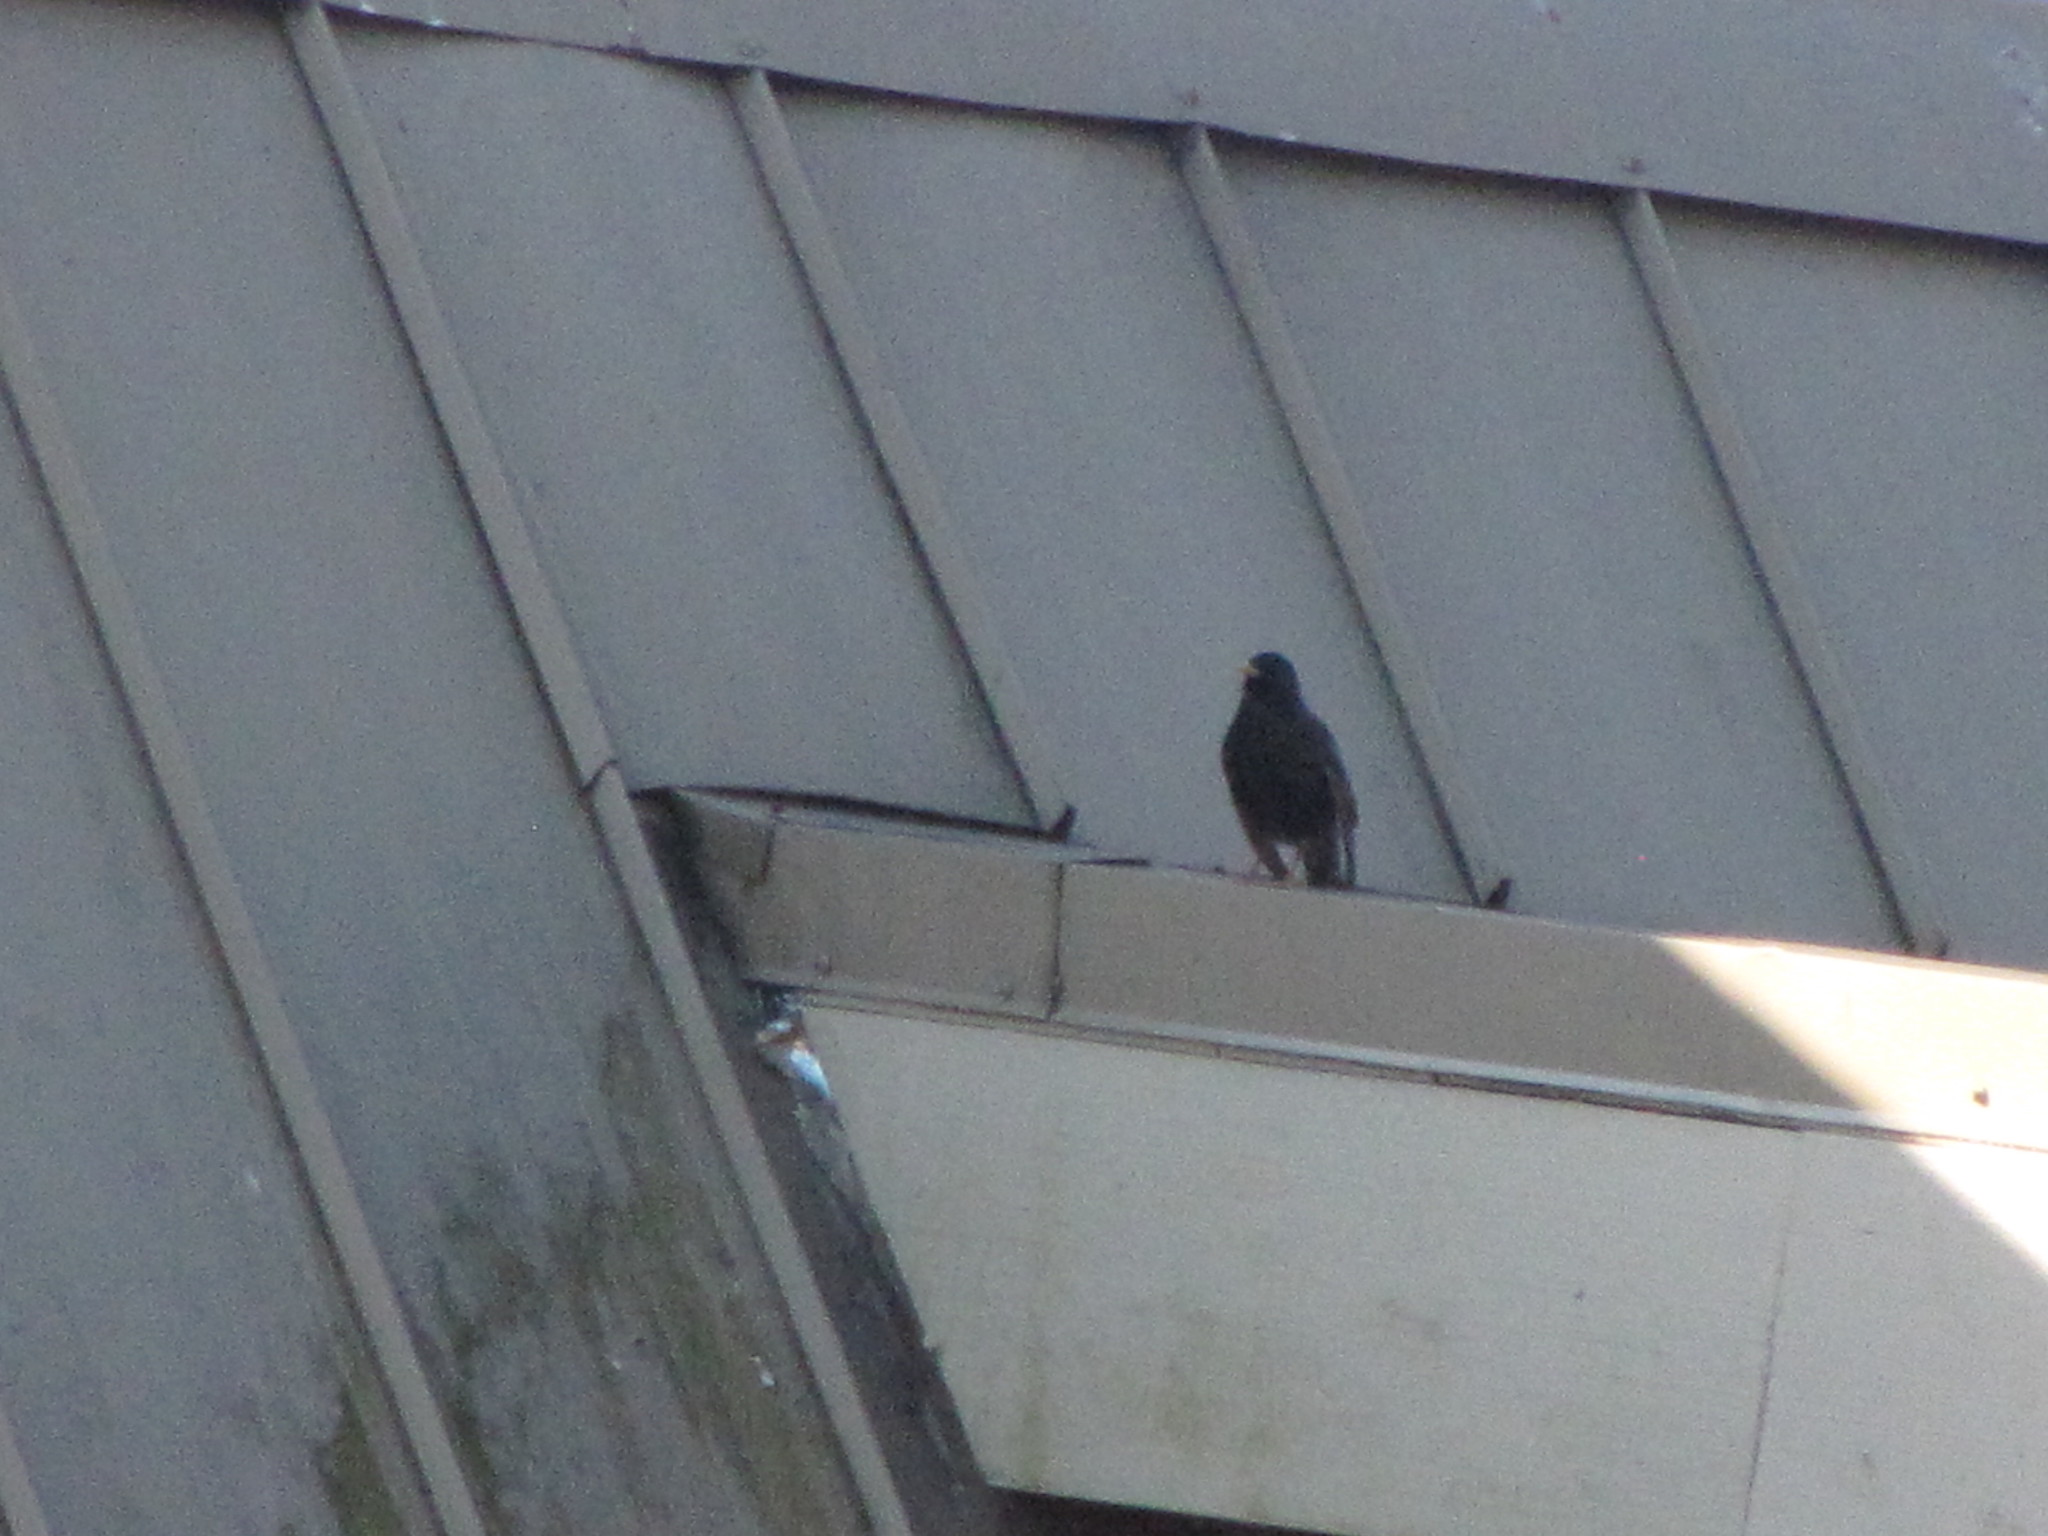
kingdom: Animalia
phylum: Chordata
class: Aves
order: Passeriformes
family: Sturnidae
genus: Sturnus
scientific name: Sturnus vulgaris
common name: Common starling
